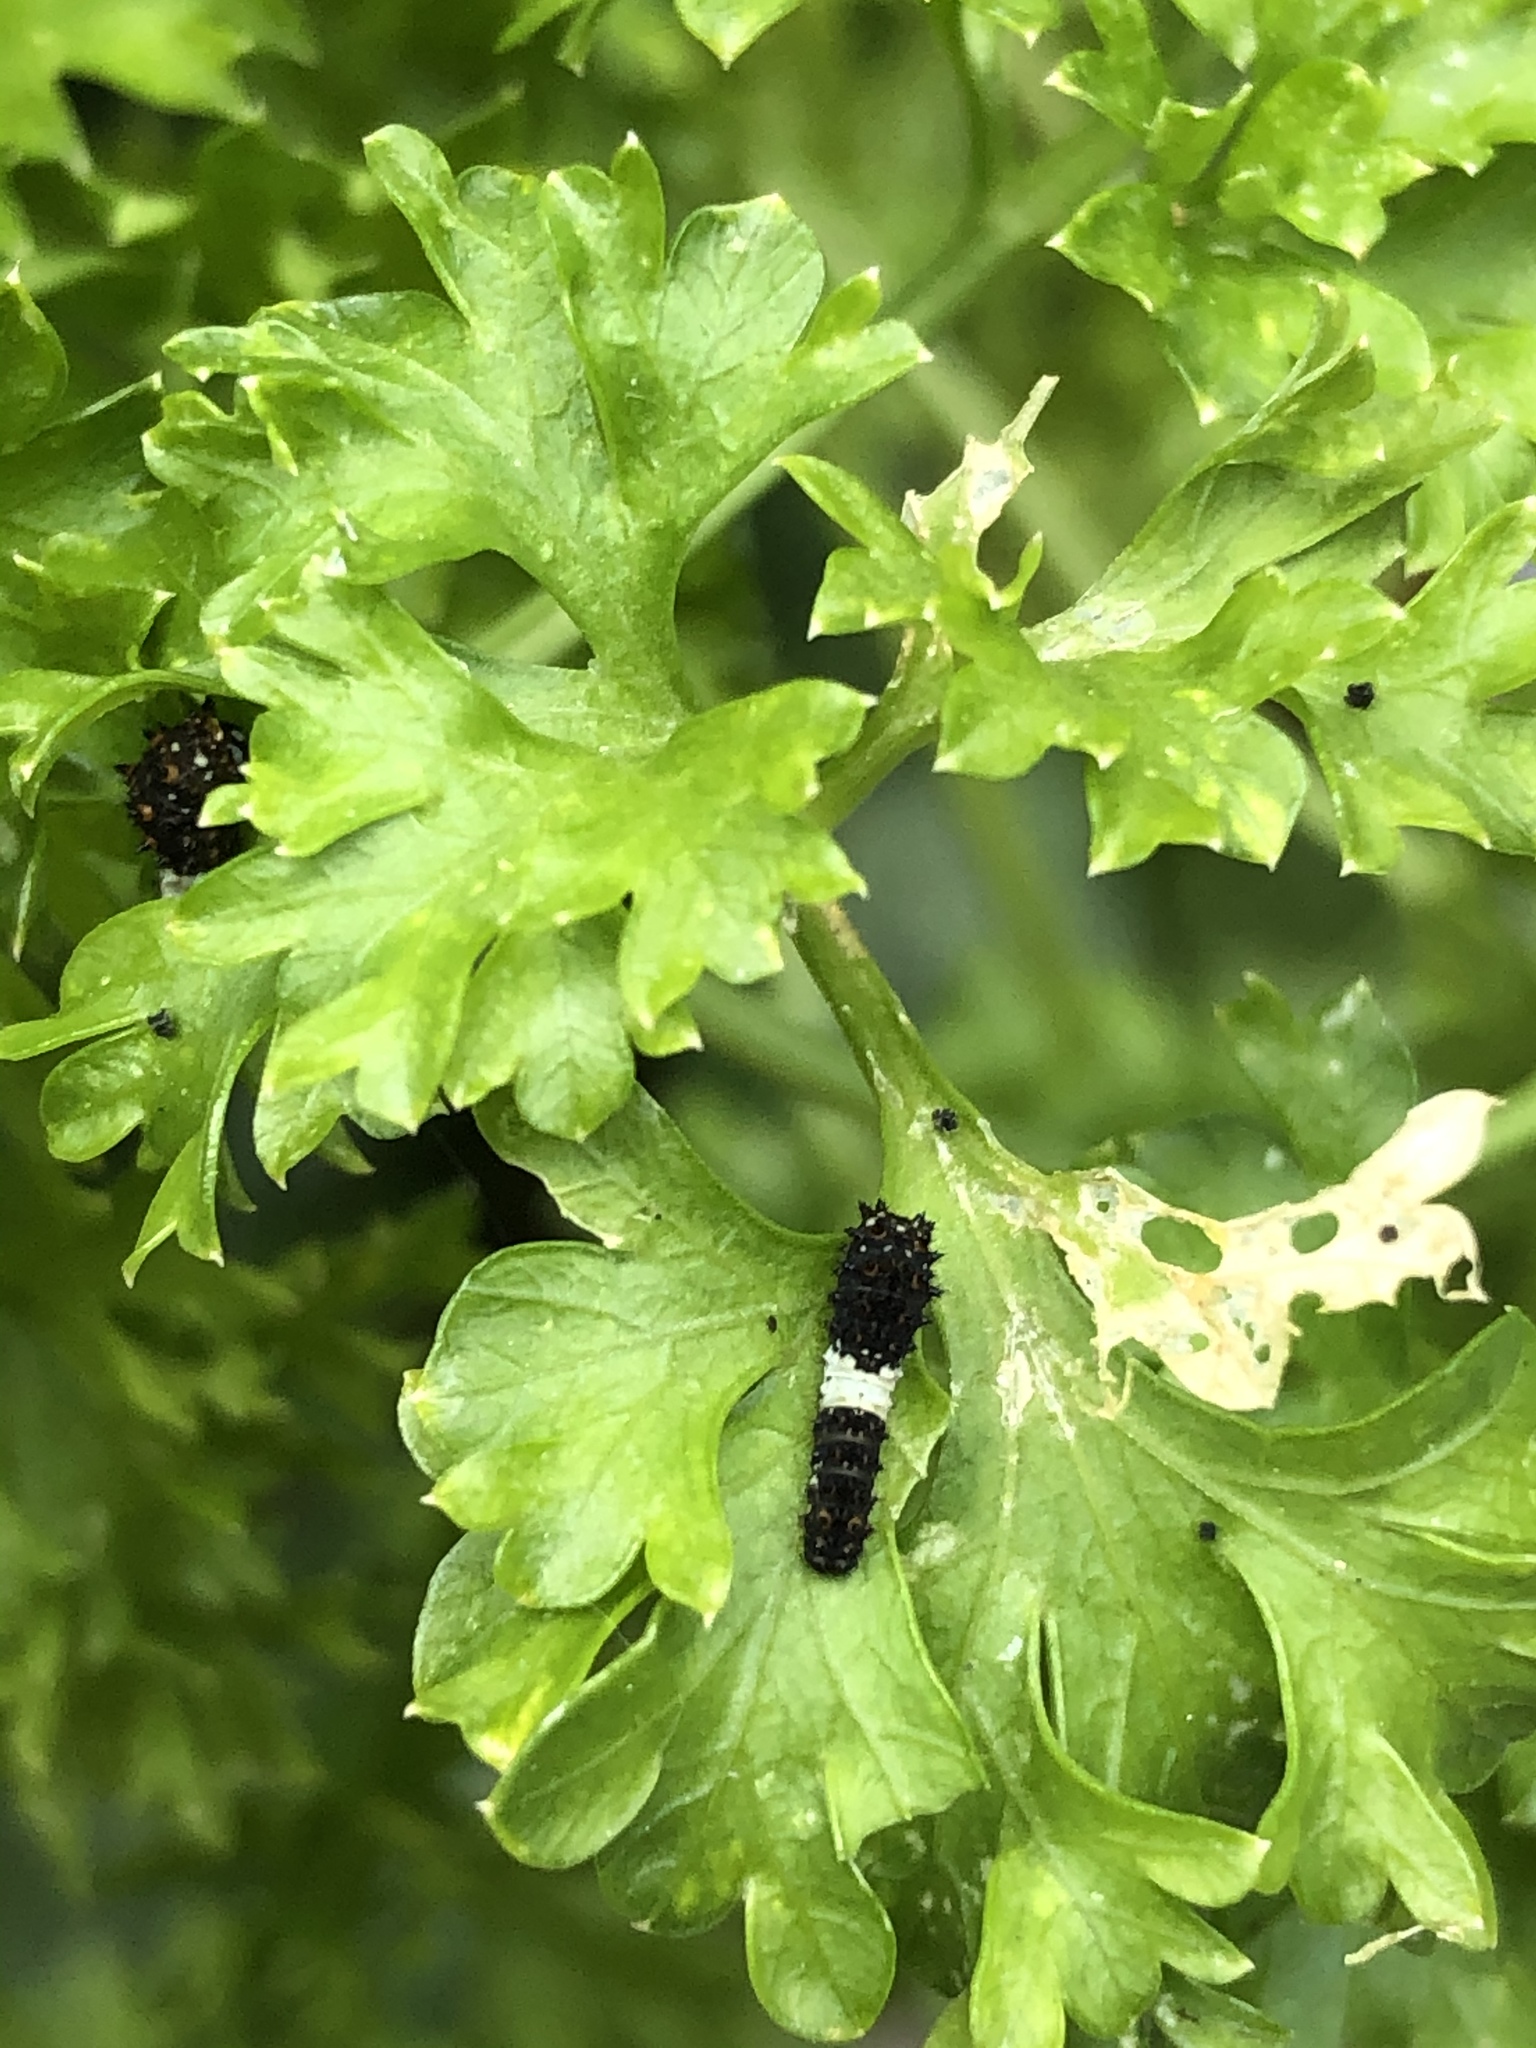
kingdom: Animalia
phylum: Arthropoda
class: Insecta
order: Lepidoptera
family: Papilionidae
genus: Papilio
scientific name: Papilio polyxenes
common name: Black swallowtail
